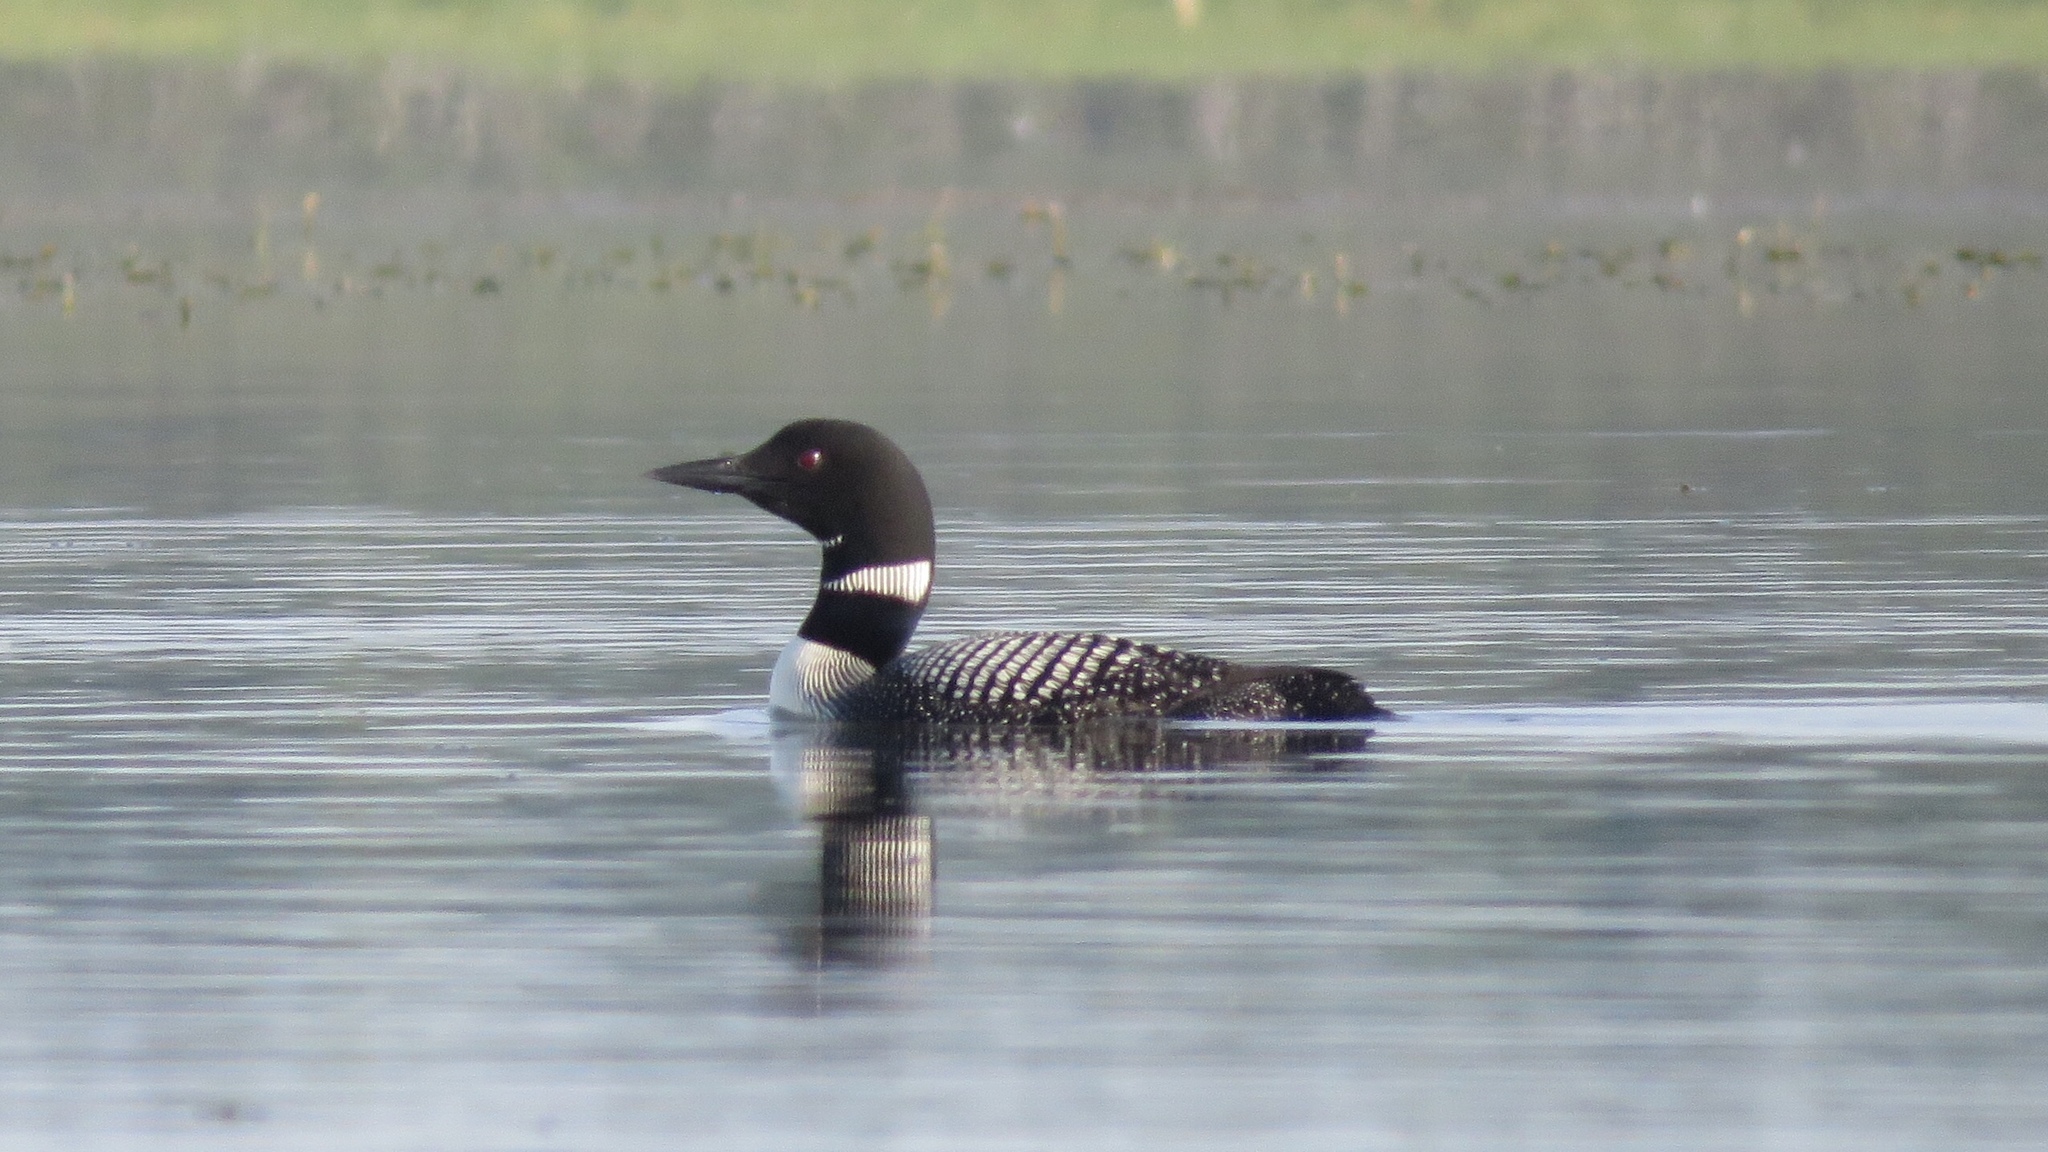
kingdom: Animalia
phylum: Chordata
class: Aves
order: Gaviiformes
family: Gaviidae
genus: Gavia
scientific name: Gavia immer
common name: Common loon
